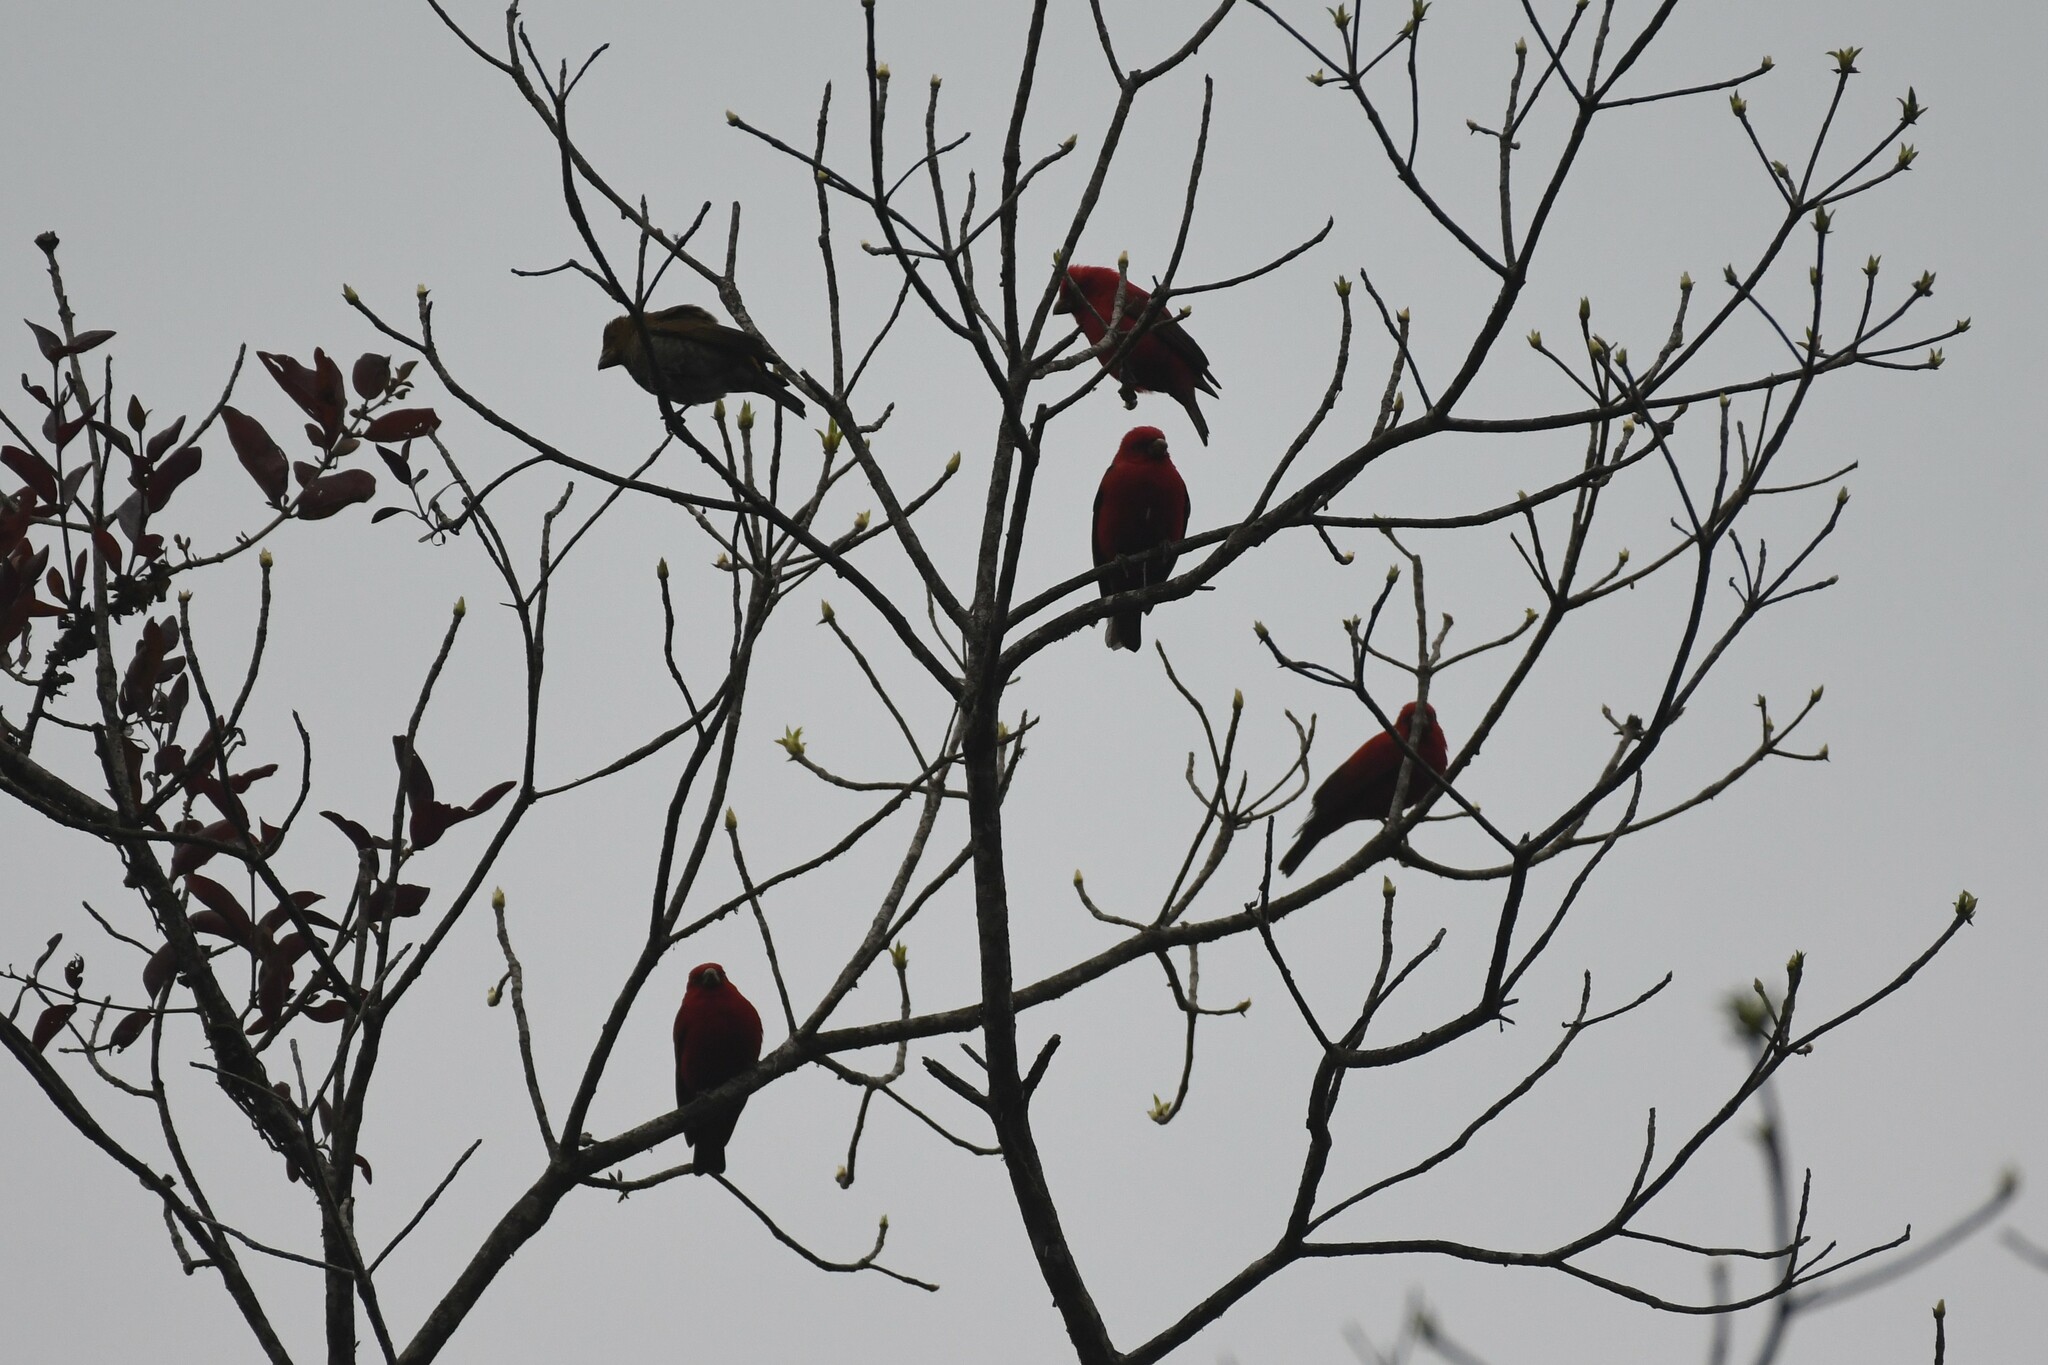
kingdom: Animalia
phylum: Chordata
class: Aves
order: Passeriformes
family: Fringillidae
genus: Carpodacus
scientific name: Carpodacus sipahi
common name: Scarlet finch
